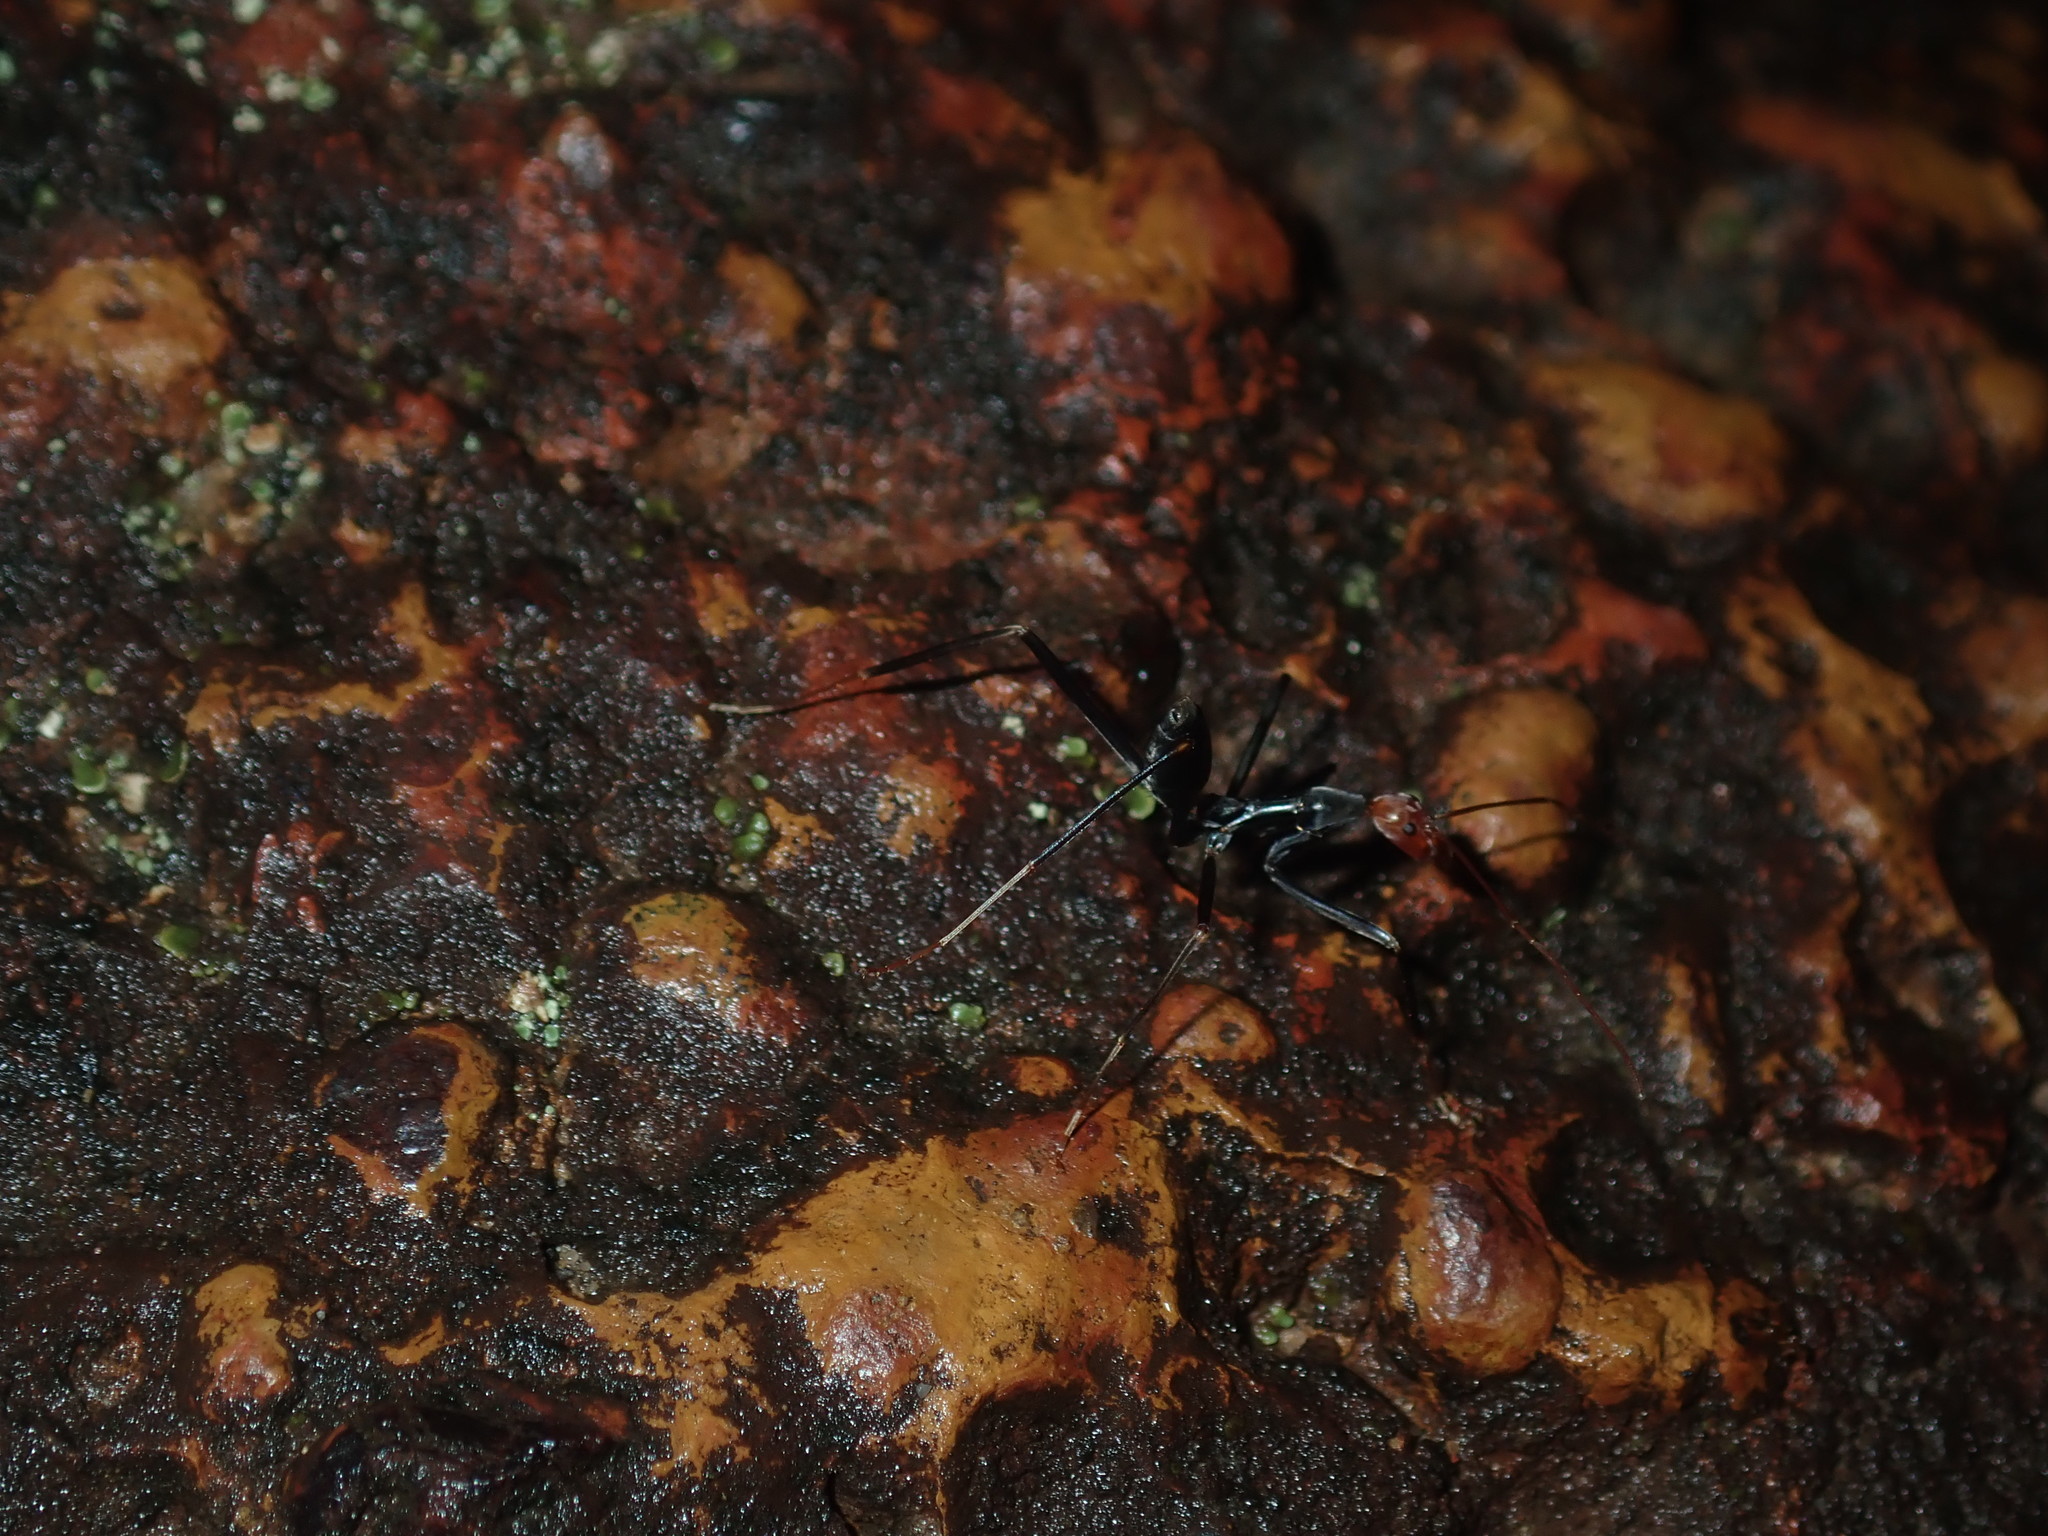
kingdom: Animalia
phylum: Arthropoda
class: Insecta
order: Hymenoptera
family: Formicidae
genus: Leptomyrmex
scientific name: Leptomyrmex erythrocephalus
